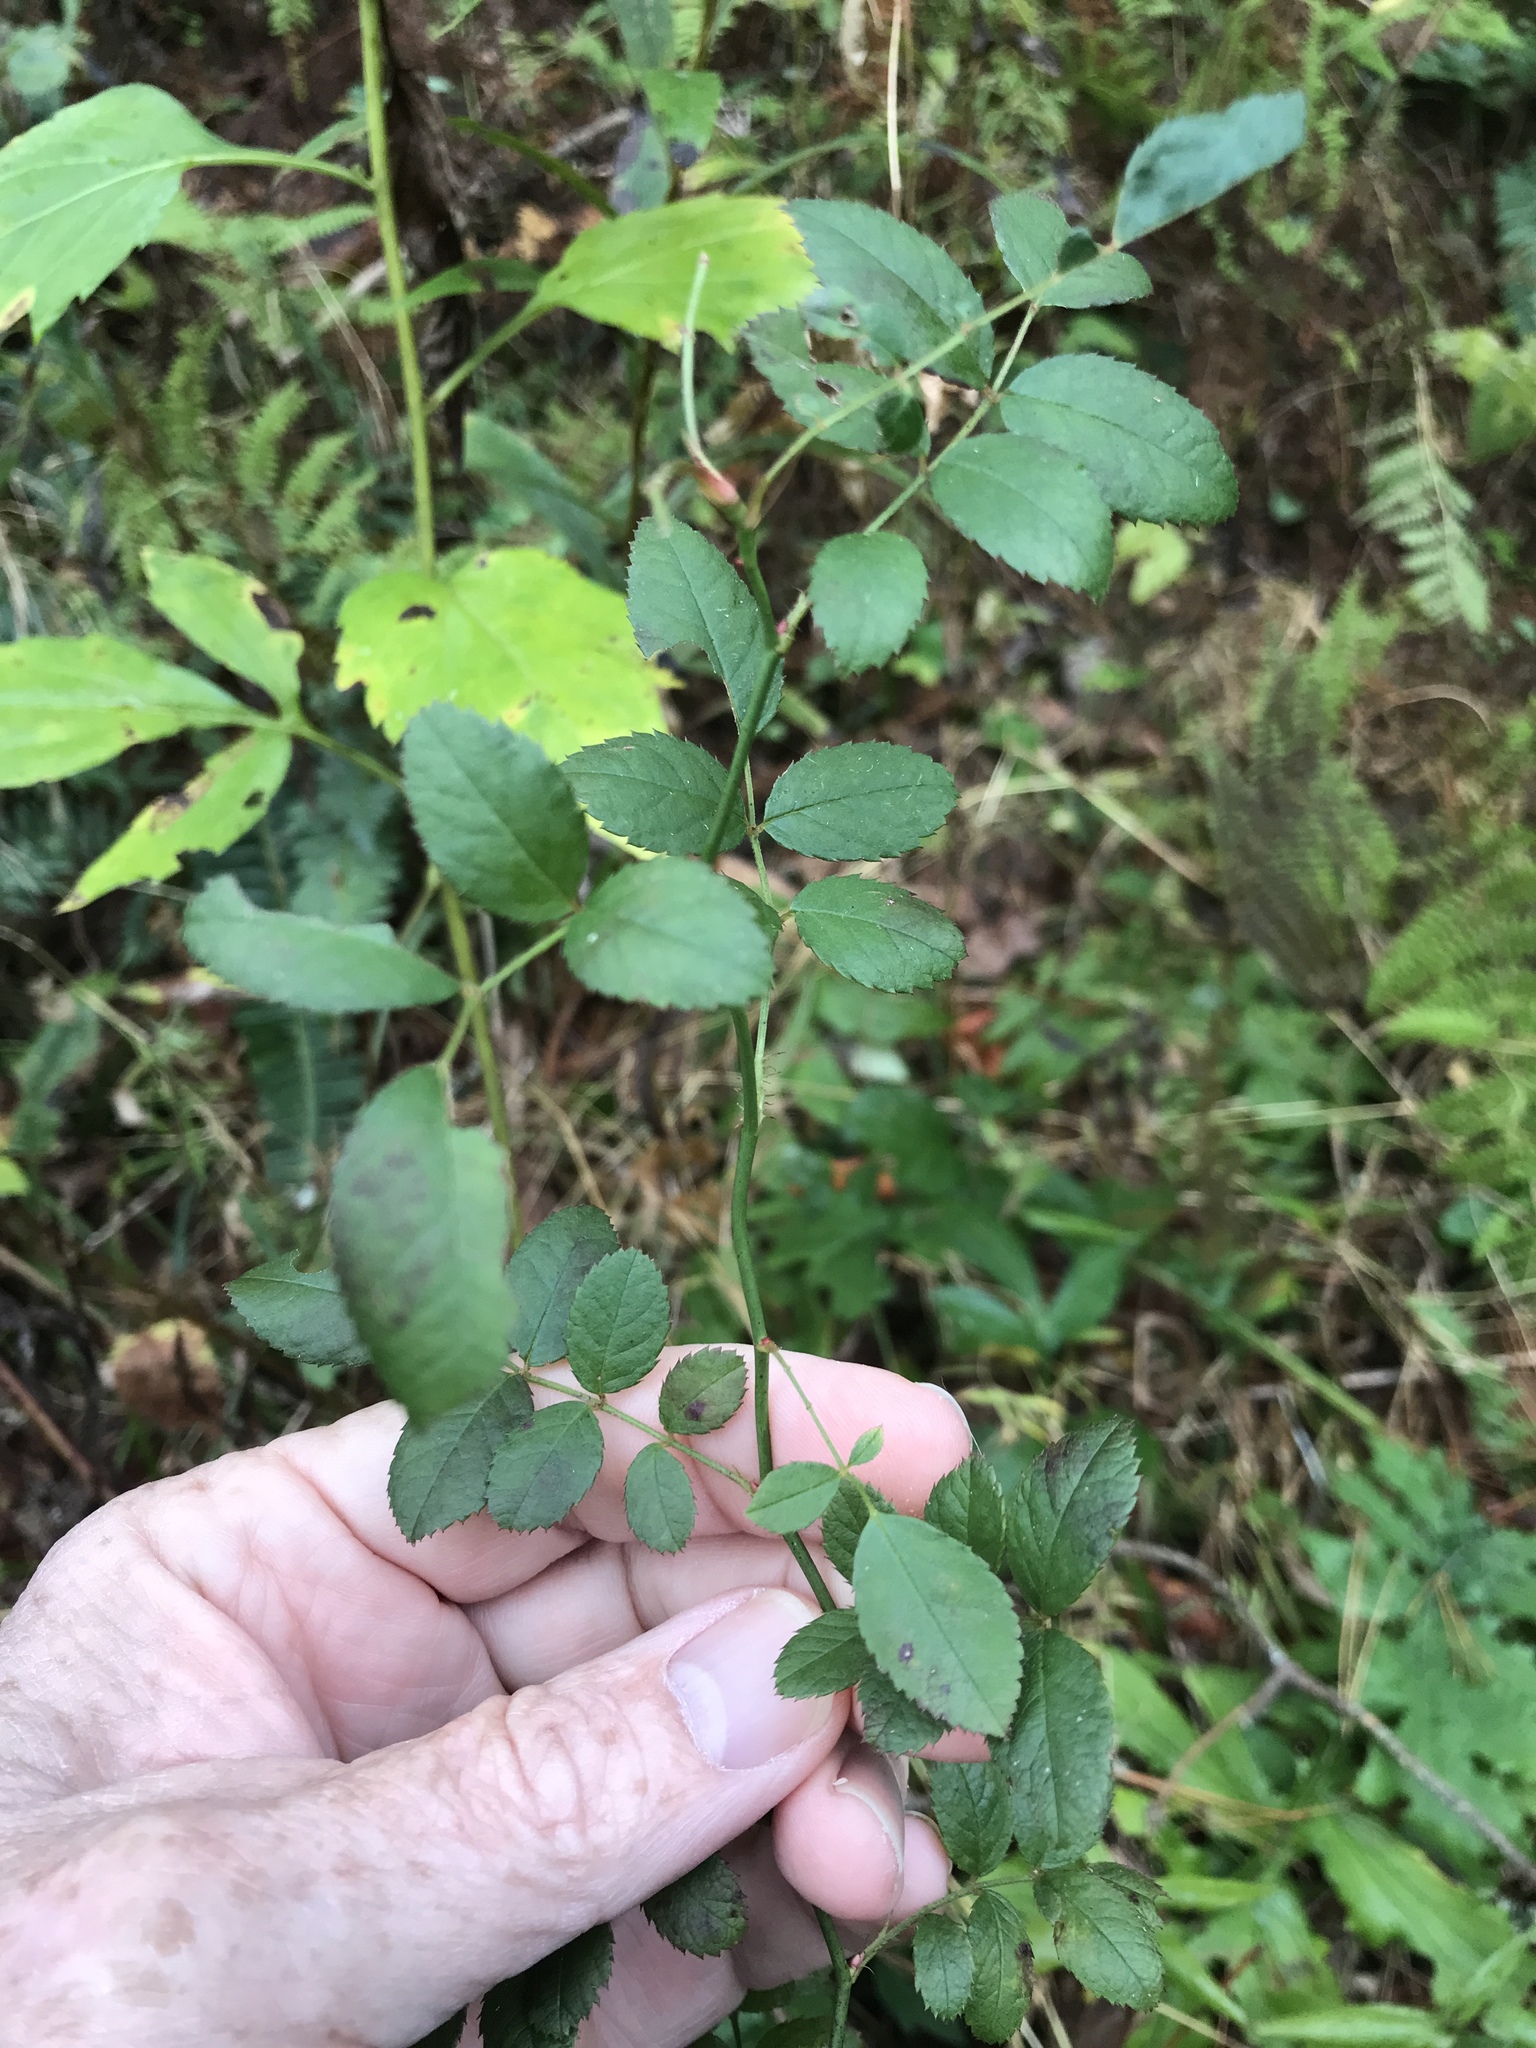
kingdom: Plantae
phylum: Tracheophyta
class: Magnoliopsida
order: Rosales
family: Rosaceae
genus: Rosa
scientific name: Rosa multiflora
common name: Multiflora rose
